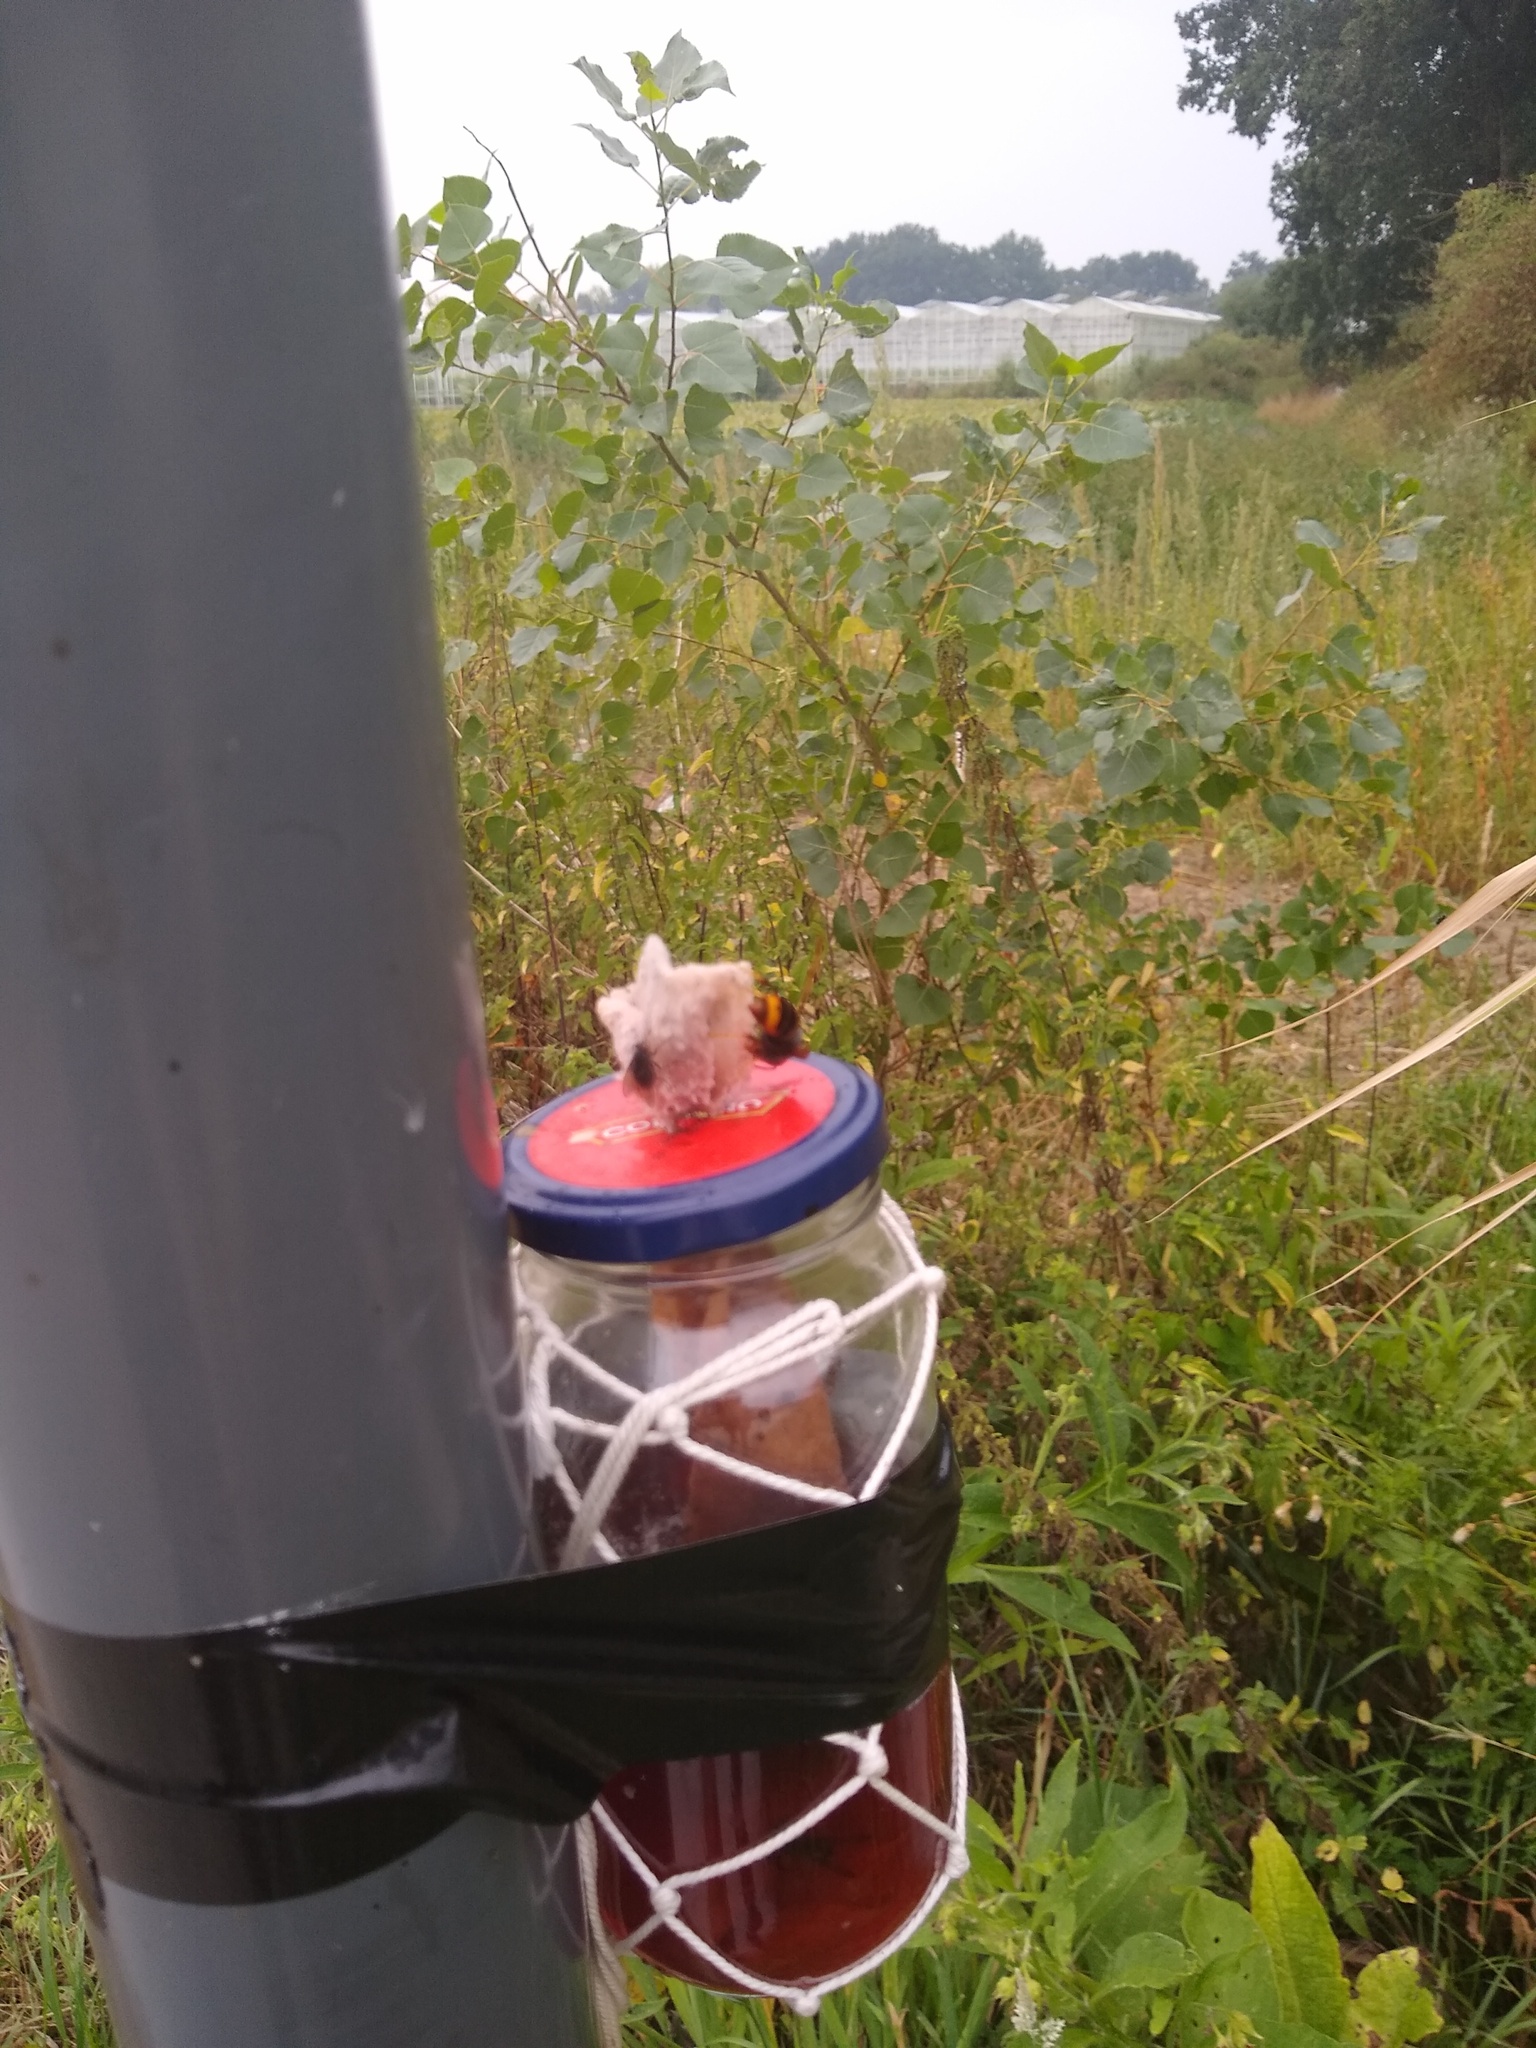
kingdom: Animalia
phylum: Arthropoda
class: Insecta
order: Hymenoptera
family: Vespidae
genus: Vespa
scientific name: Vespa velutina
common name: Asian hornet
